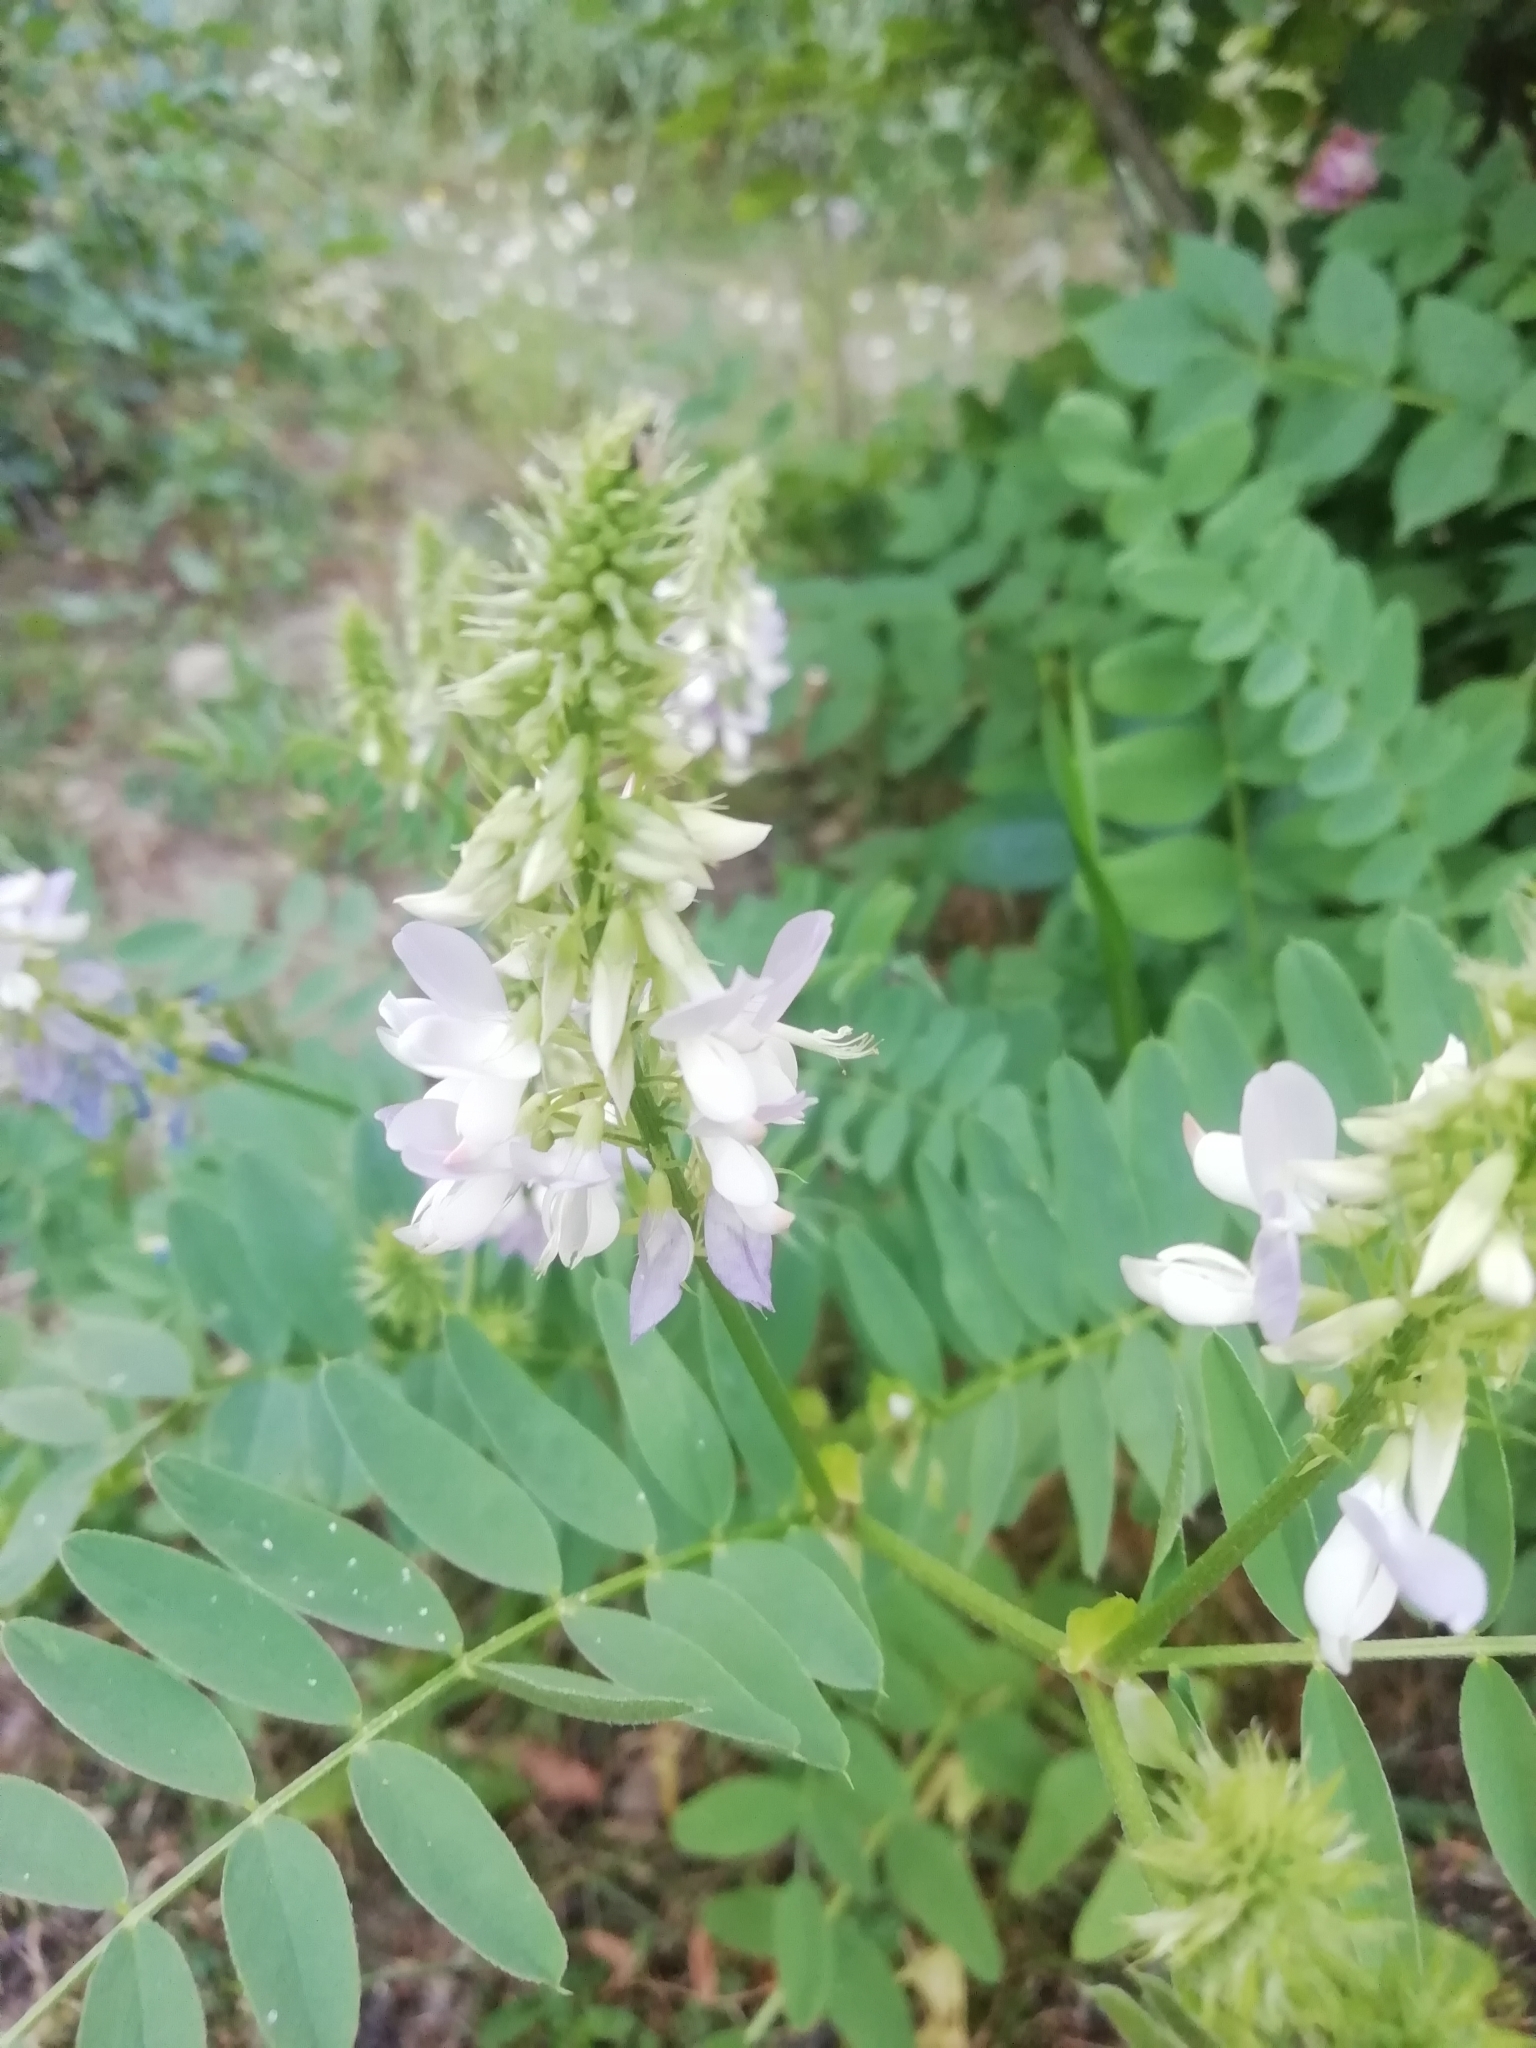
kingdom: Plantae
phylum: Tracheophyta
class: Magnoliopsida
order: Fabales
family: Fabaceae
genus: Galega
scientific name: Galega officinalis
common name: Goat's-rue
